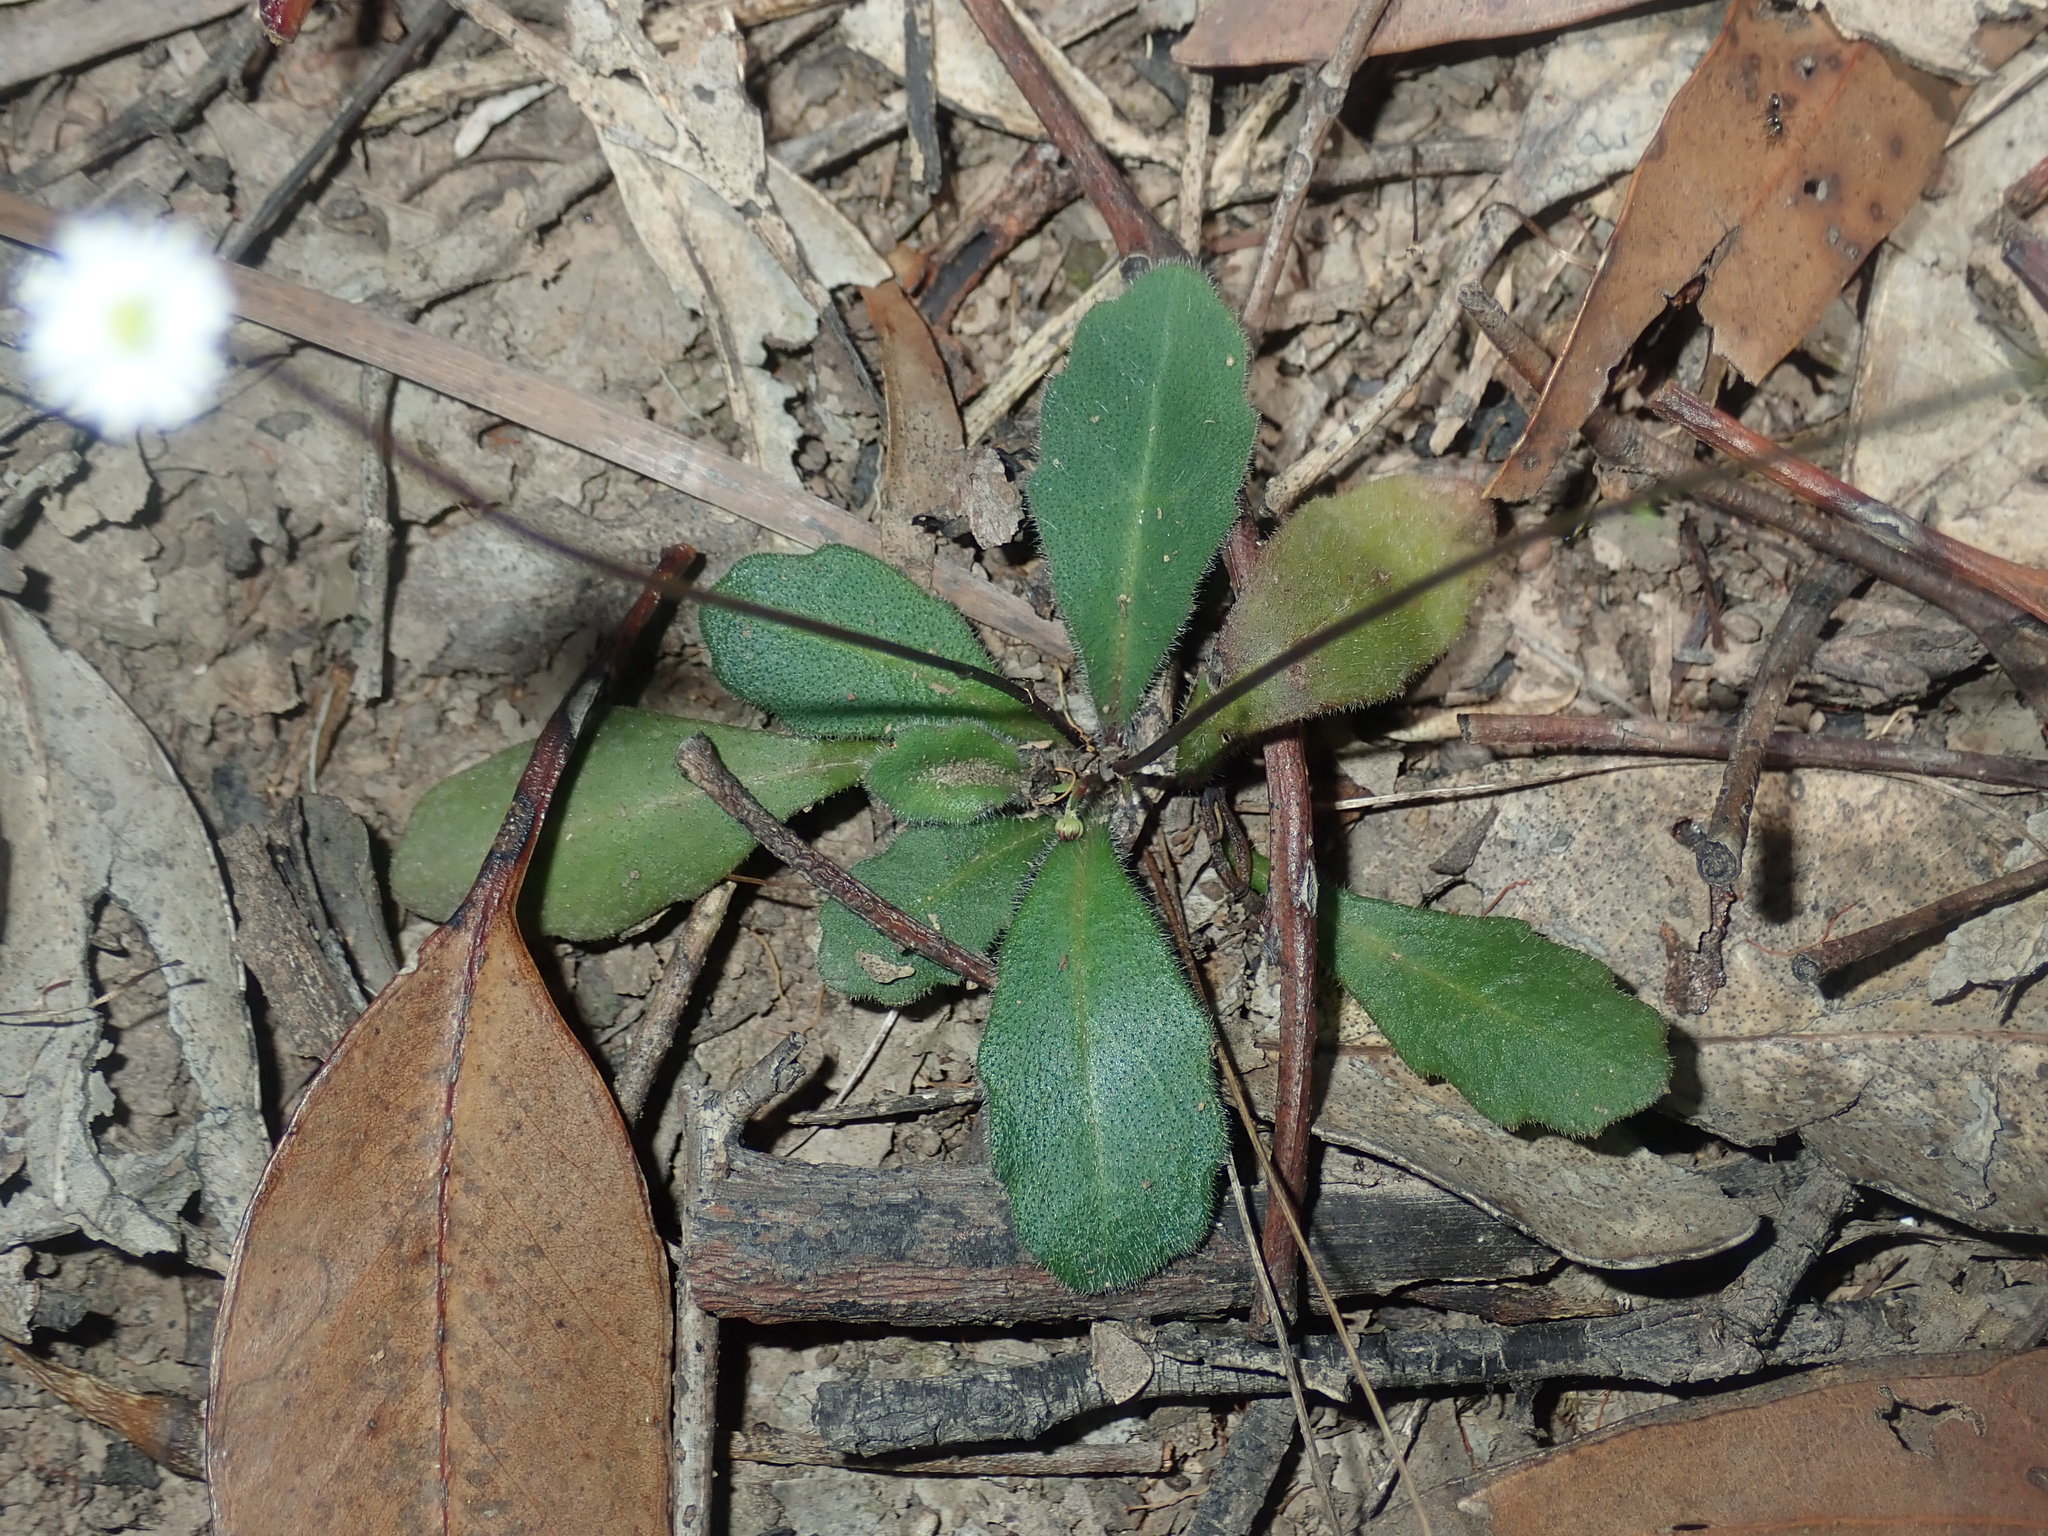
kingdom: Plantae
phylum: Tracheophyta
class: Magnoliopsida
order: Asterales
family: Asteraceae
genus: Lagenophora
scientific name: Lagenophora sublyrata ter
